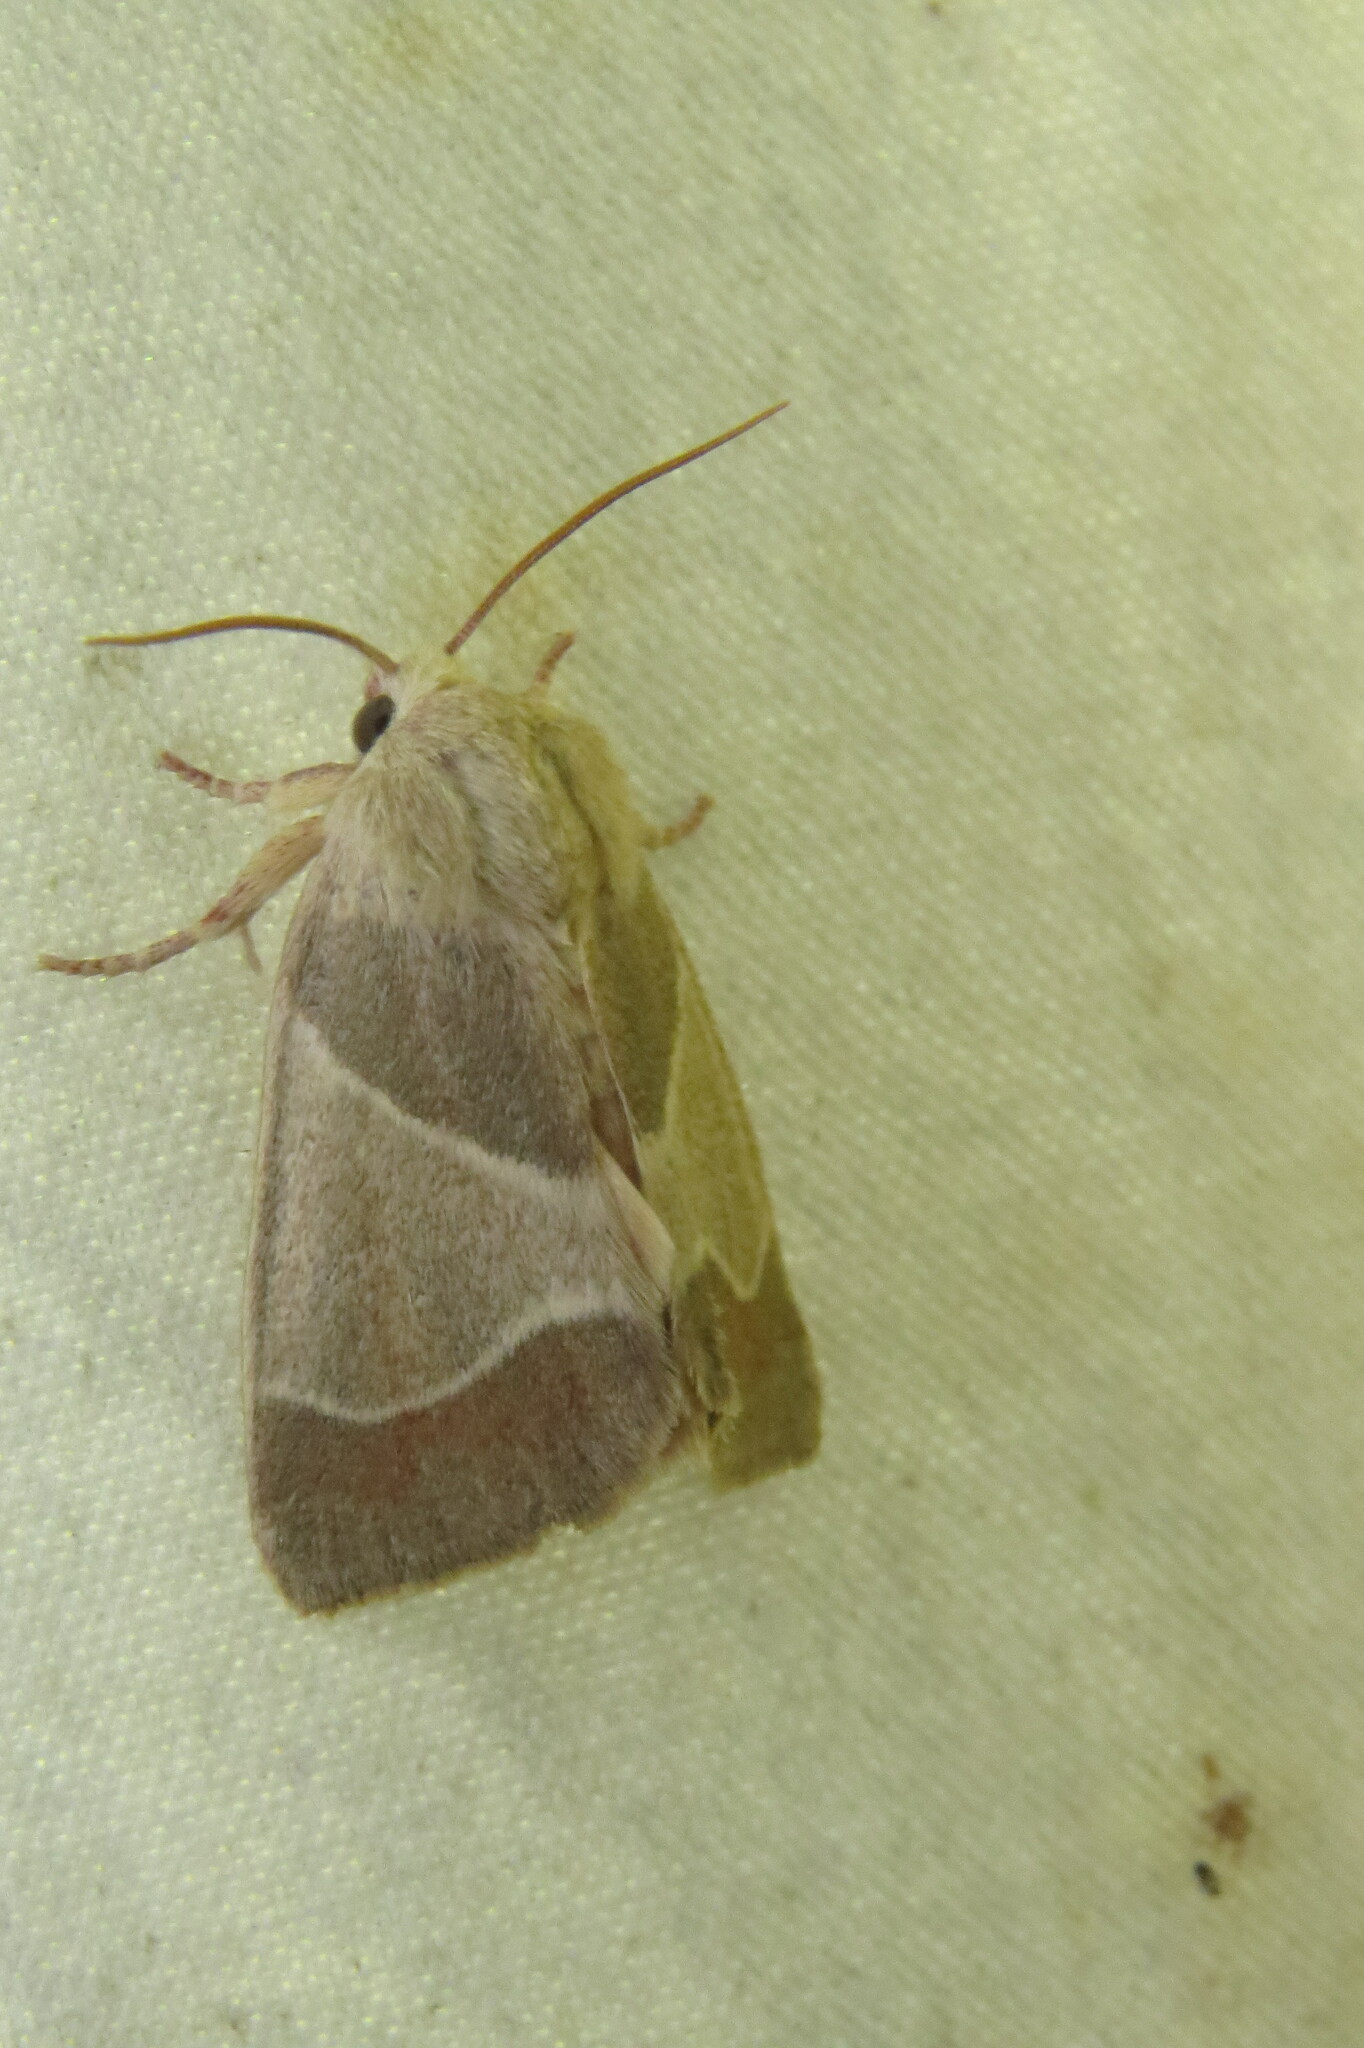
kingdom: Animalia
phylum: Arthropoda
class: Insecta
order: Lepidoptera
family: Noctuidae
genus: Cosmia
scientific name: Cosmia calami
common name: American dun-bar moth
